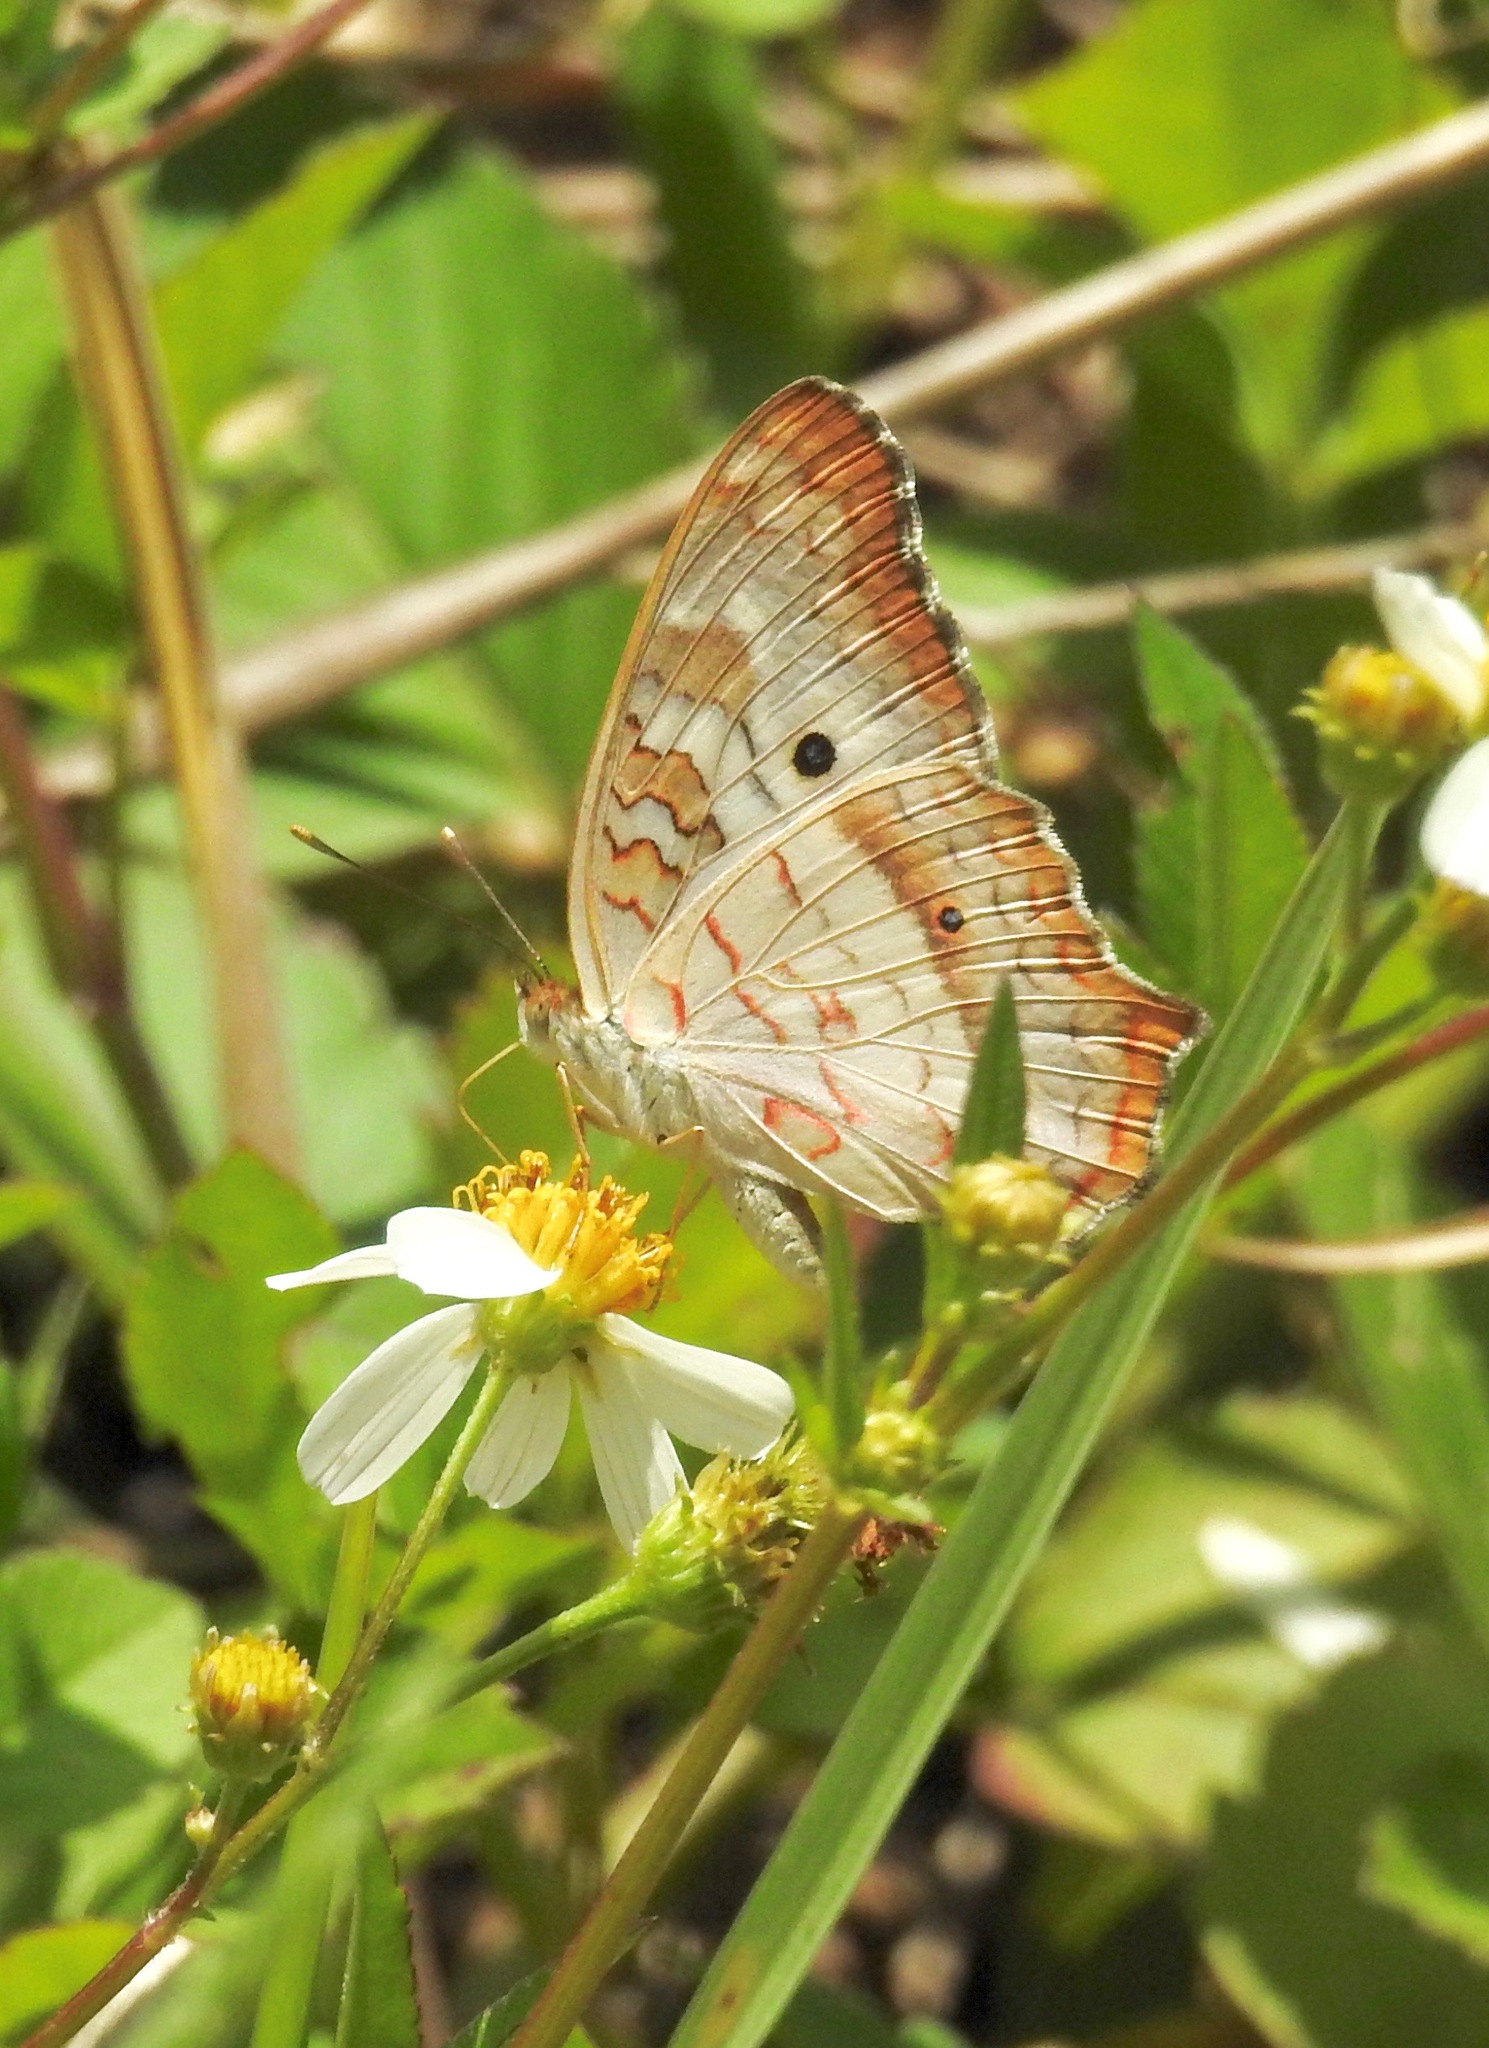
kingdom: Animalia
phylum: Arthropoda
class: Insecta
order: Lepidoptera
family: Nymphalidae
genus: Anartia
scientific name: Anartia jatrophae
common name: White peacock
